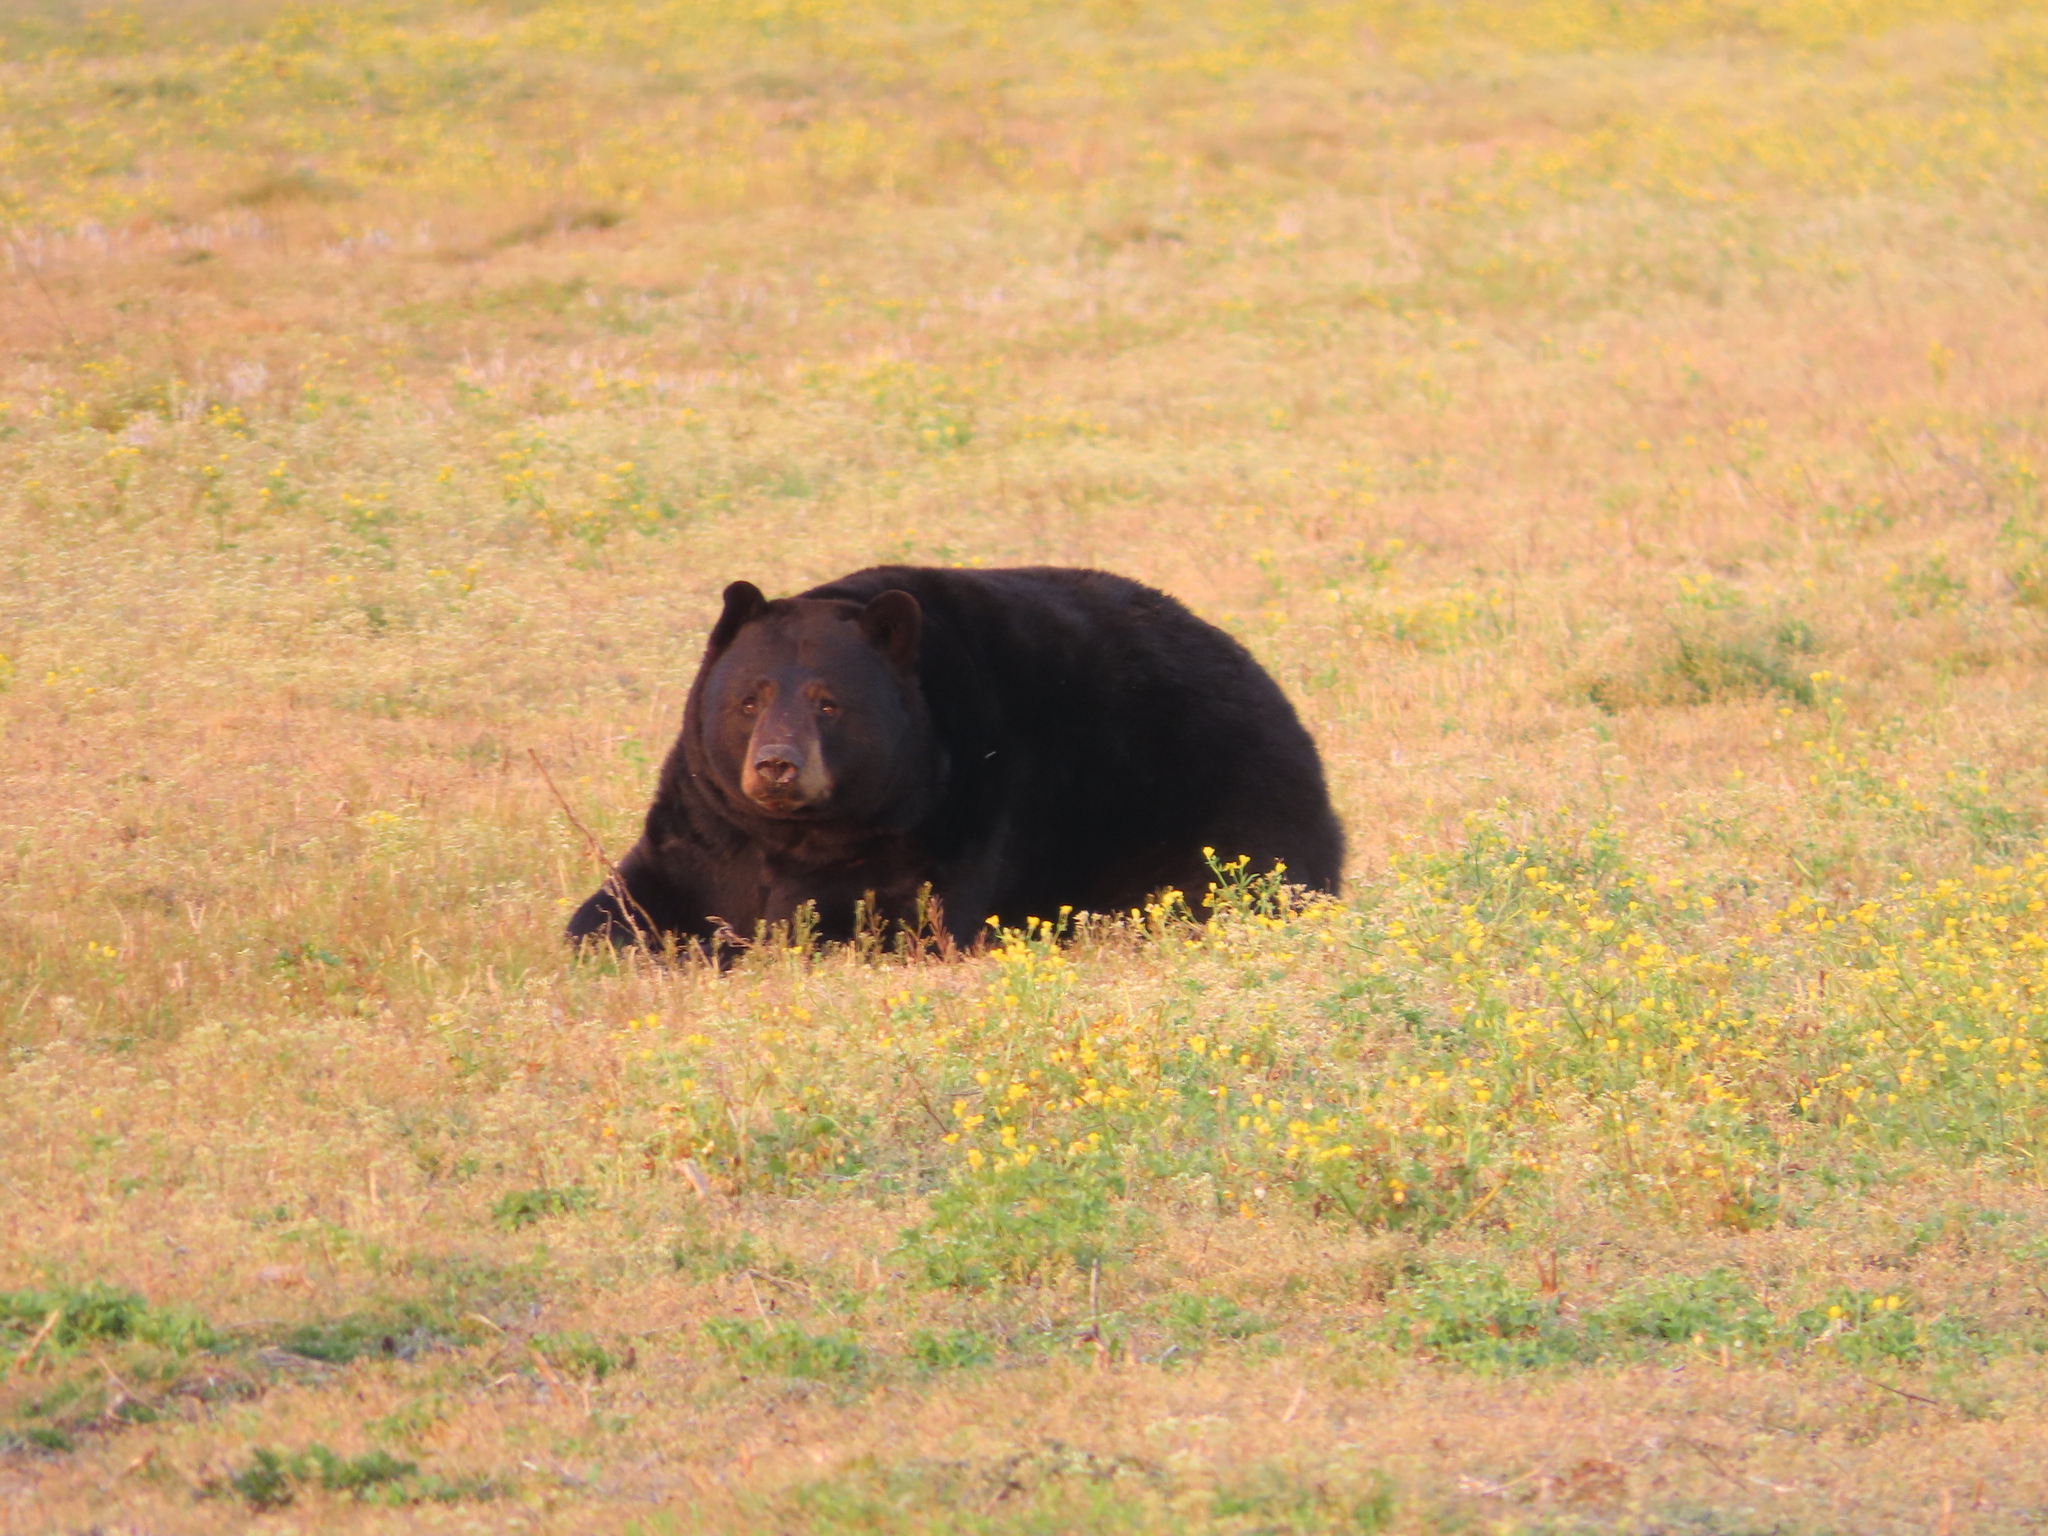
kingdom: Animalia
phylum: Chordata
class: Mammalia
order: Carnivora
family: Ursidae
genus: Ursus
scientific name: Ursus americanus
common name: American black bear
